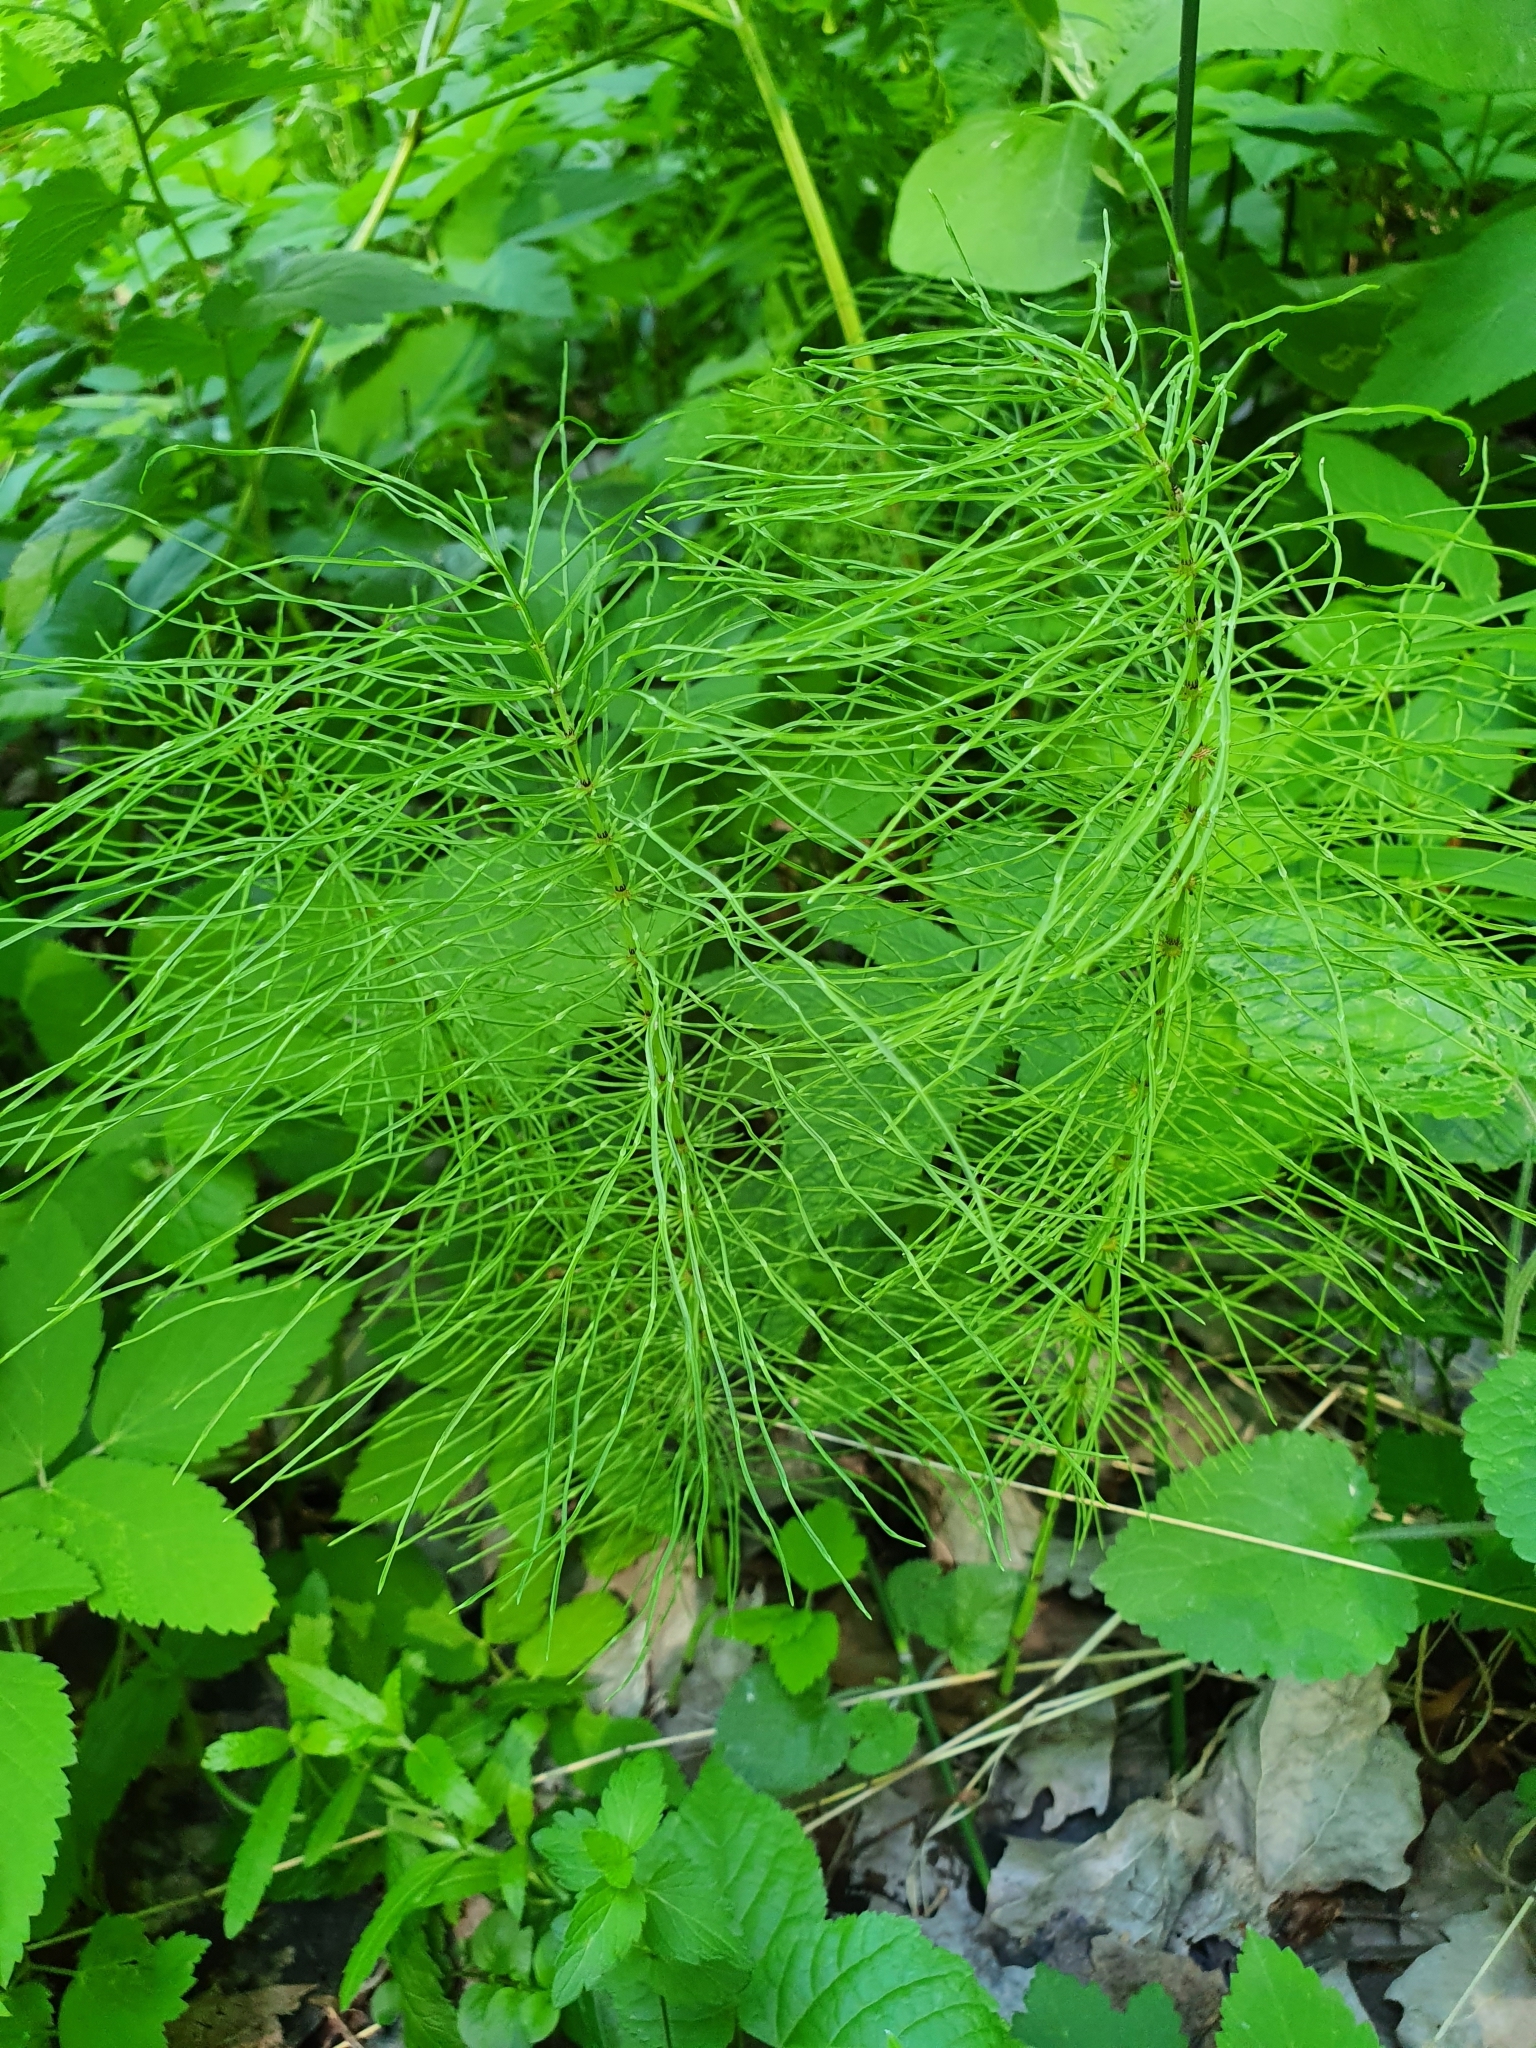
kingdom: Plantae
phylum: Tracheophyta
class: Polypodiopsida
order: Equisetales
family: Equisetaceae
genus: Equisetum
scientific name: Equisetum pratense
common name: Meadow horsetail
